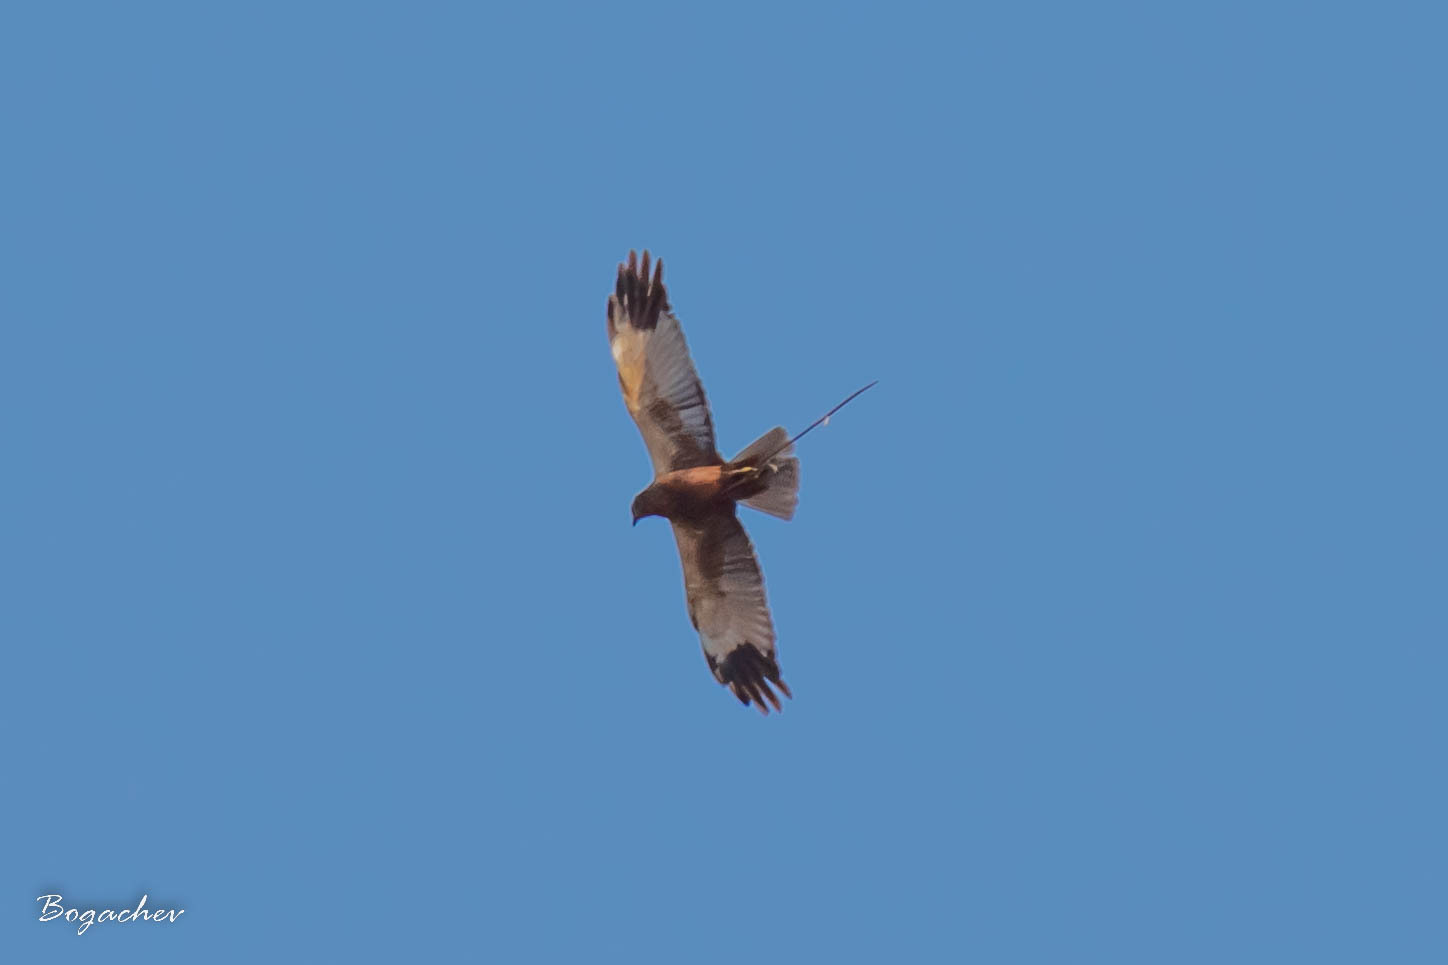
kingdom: Animalia
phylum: Chordata
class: Aves
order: Accipitriformes
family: Accipitridae
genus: Circus
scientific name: Circus aeruginosus
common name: Western marsh harrier
